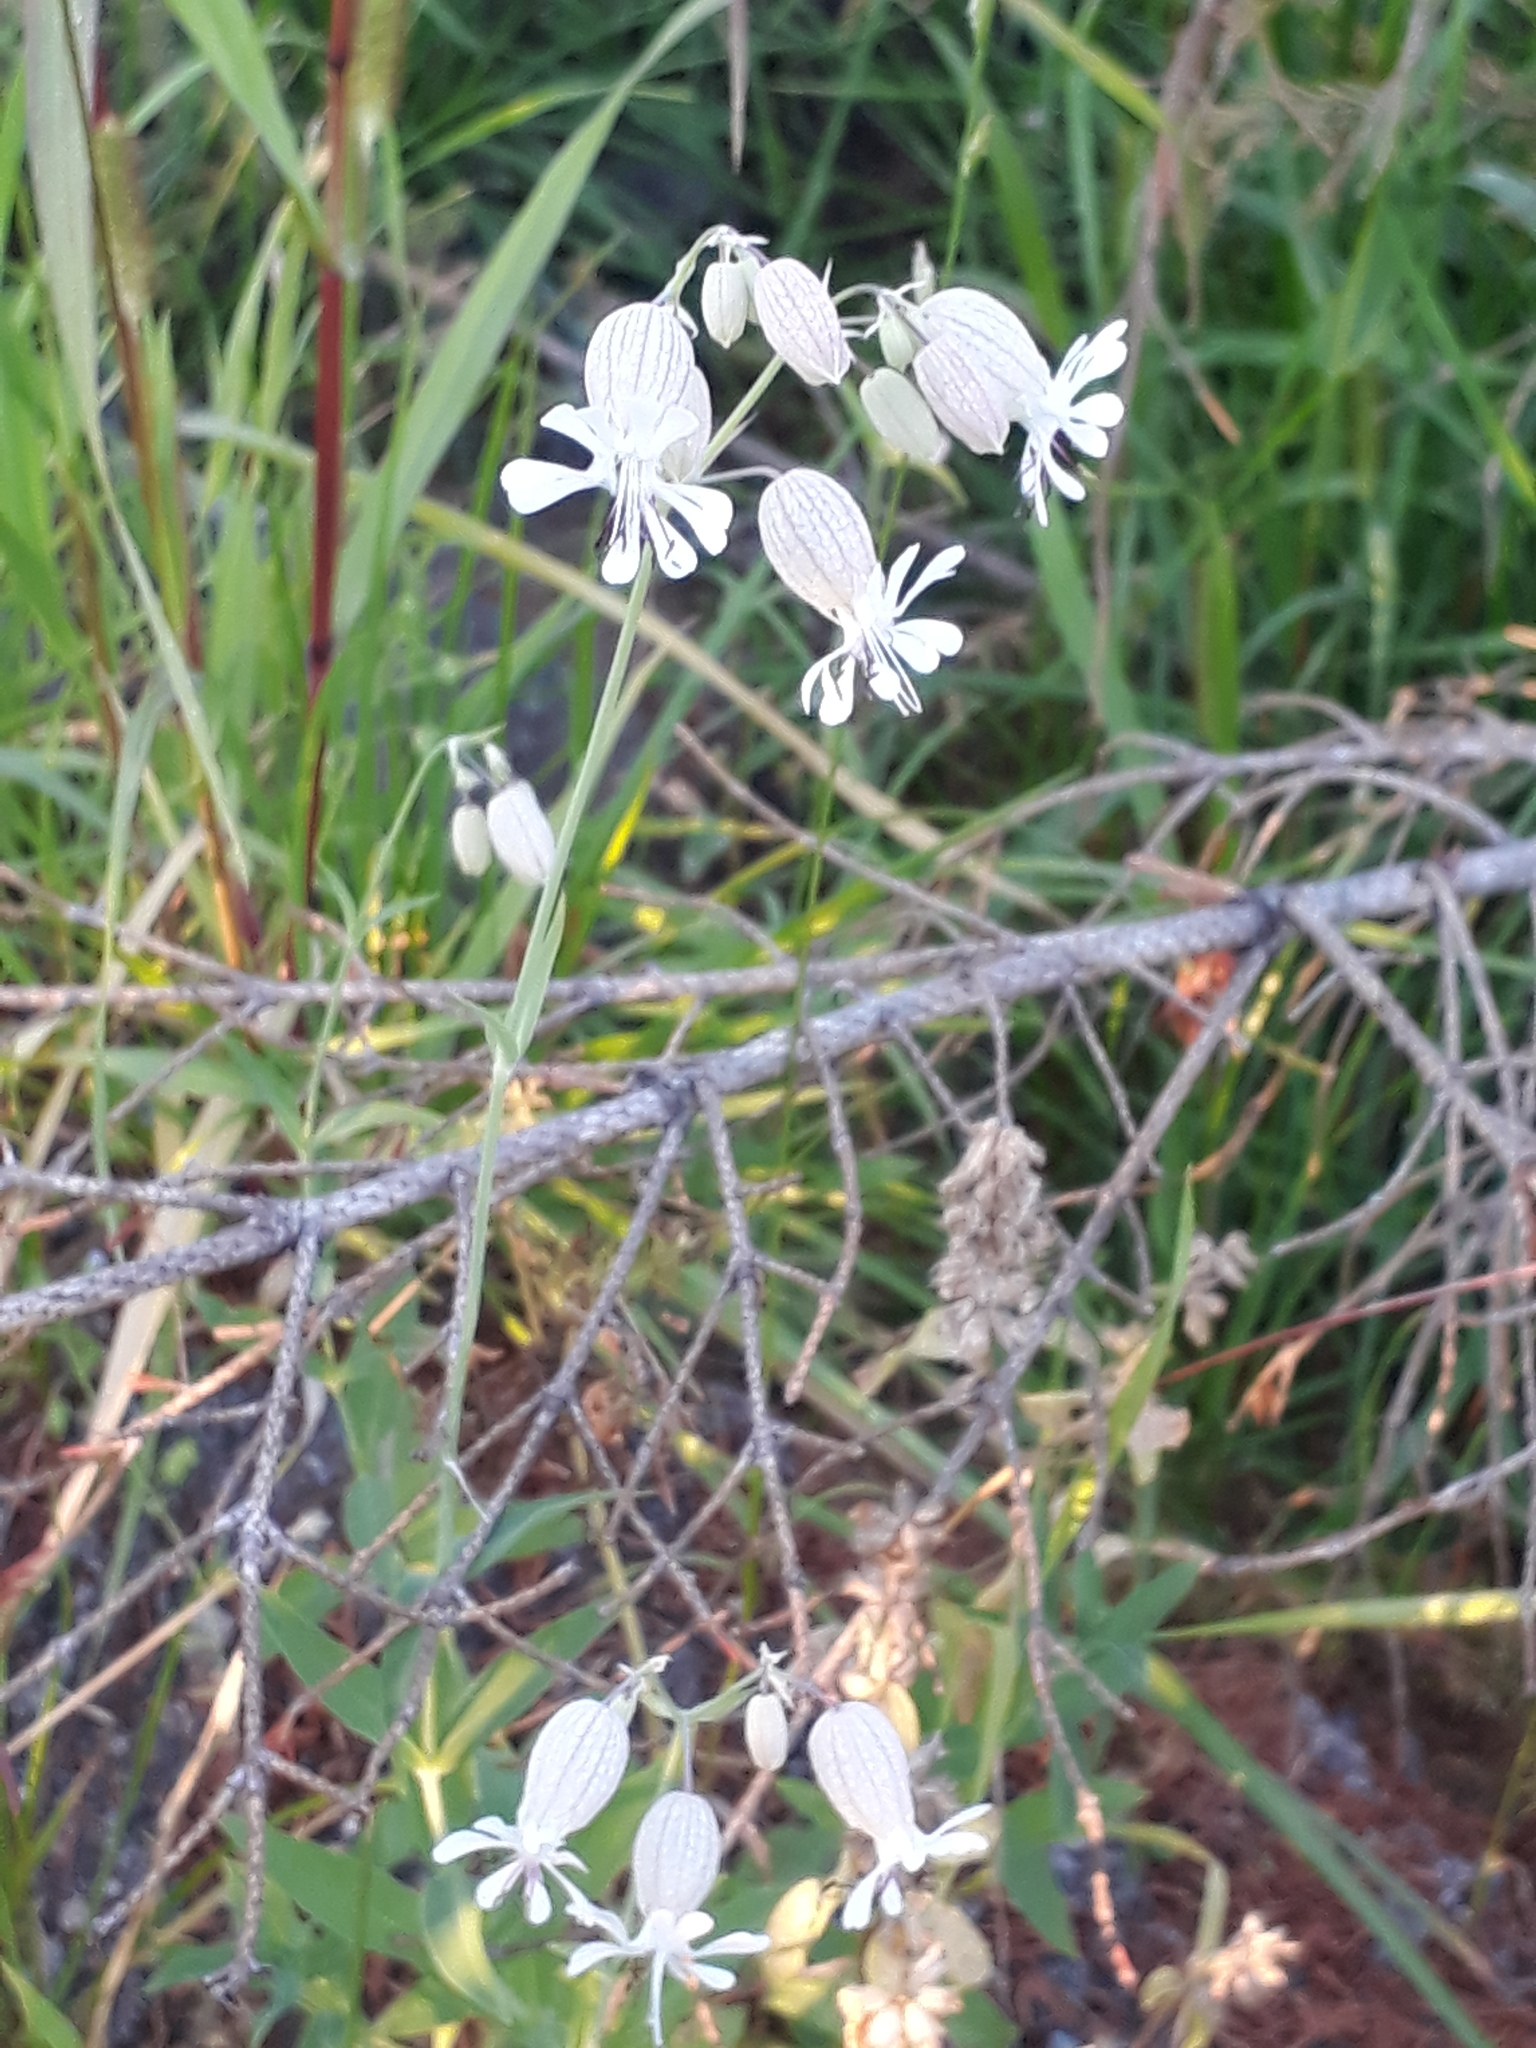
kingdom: Plantae
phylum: Tracheophyta
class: Magnoliopsida
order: Caryophyllales
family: Caryophyllaceae
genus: Silene
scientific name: Silene vulgaris
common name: Bladder campion
